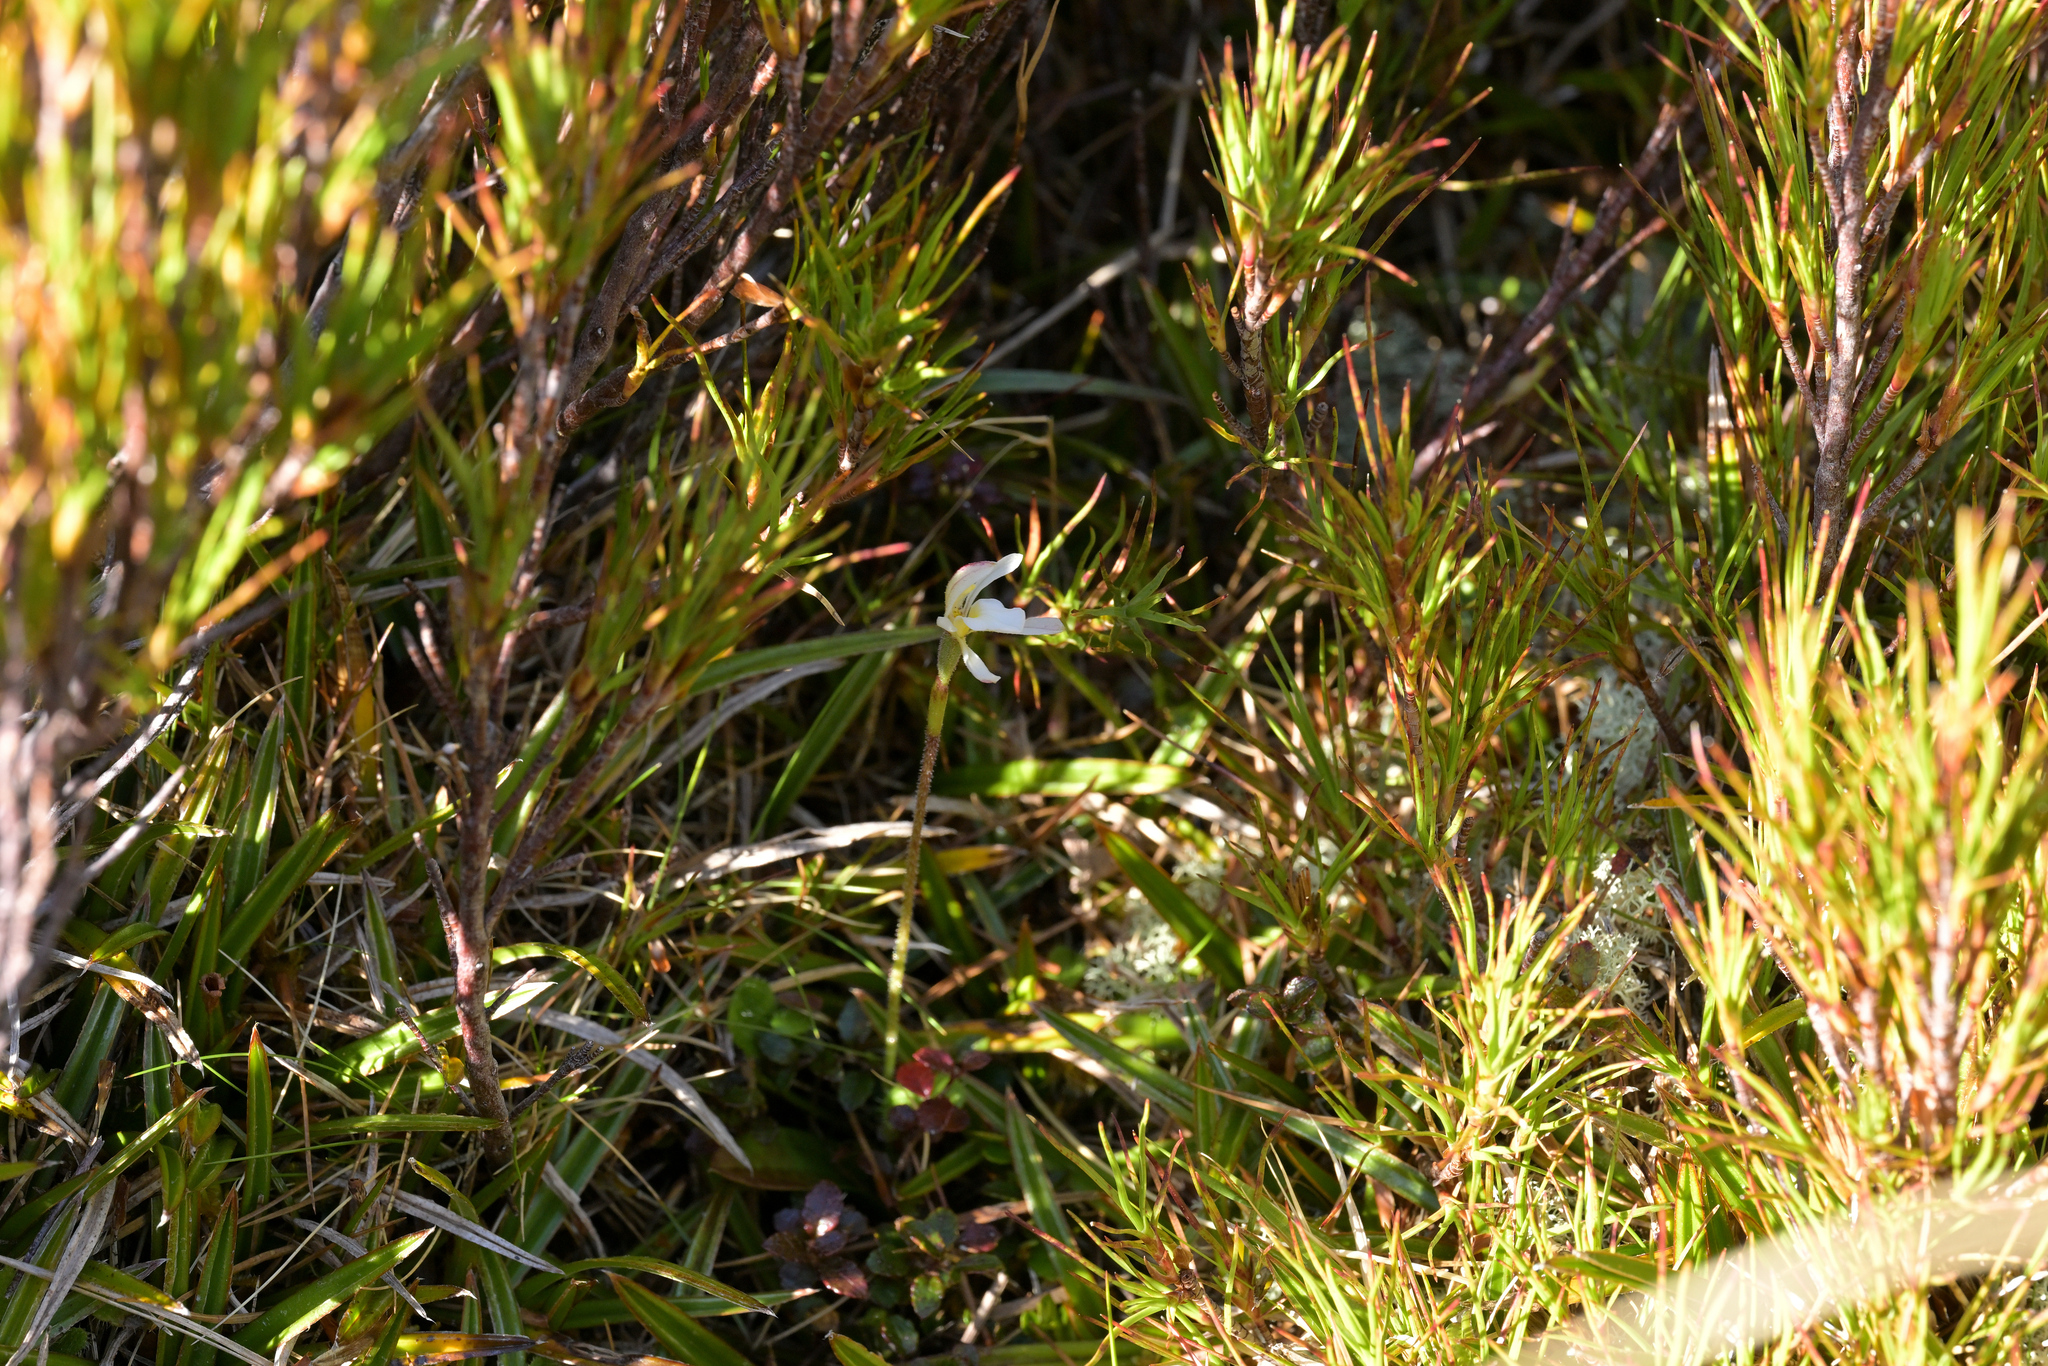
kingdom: Plantae
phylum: Tracheophyta
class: Liliopsida
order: Asparagales
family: Orchidaceae
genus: Aporostylis
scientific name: Aporostylis bifolia
